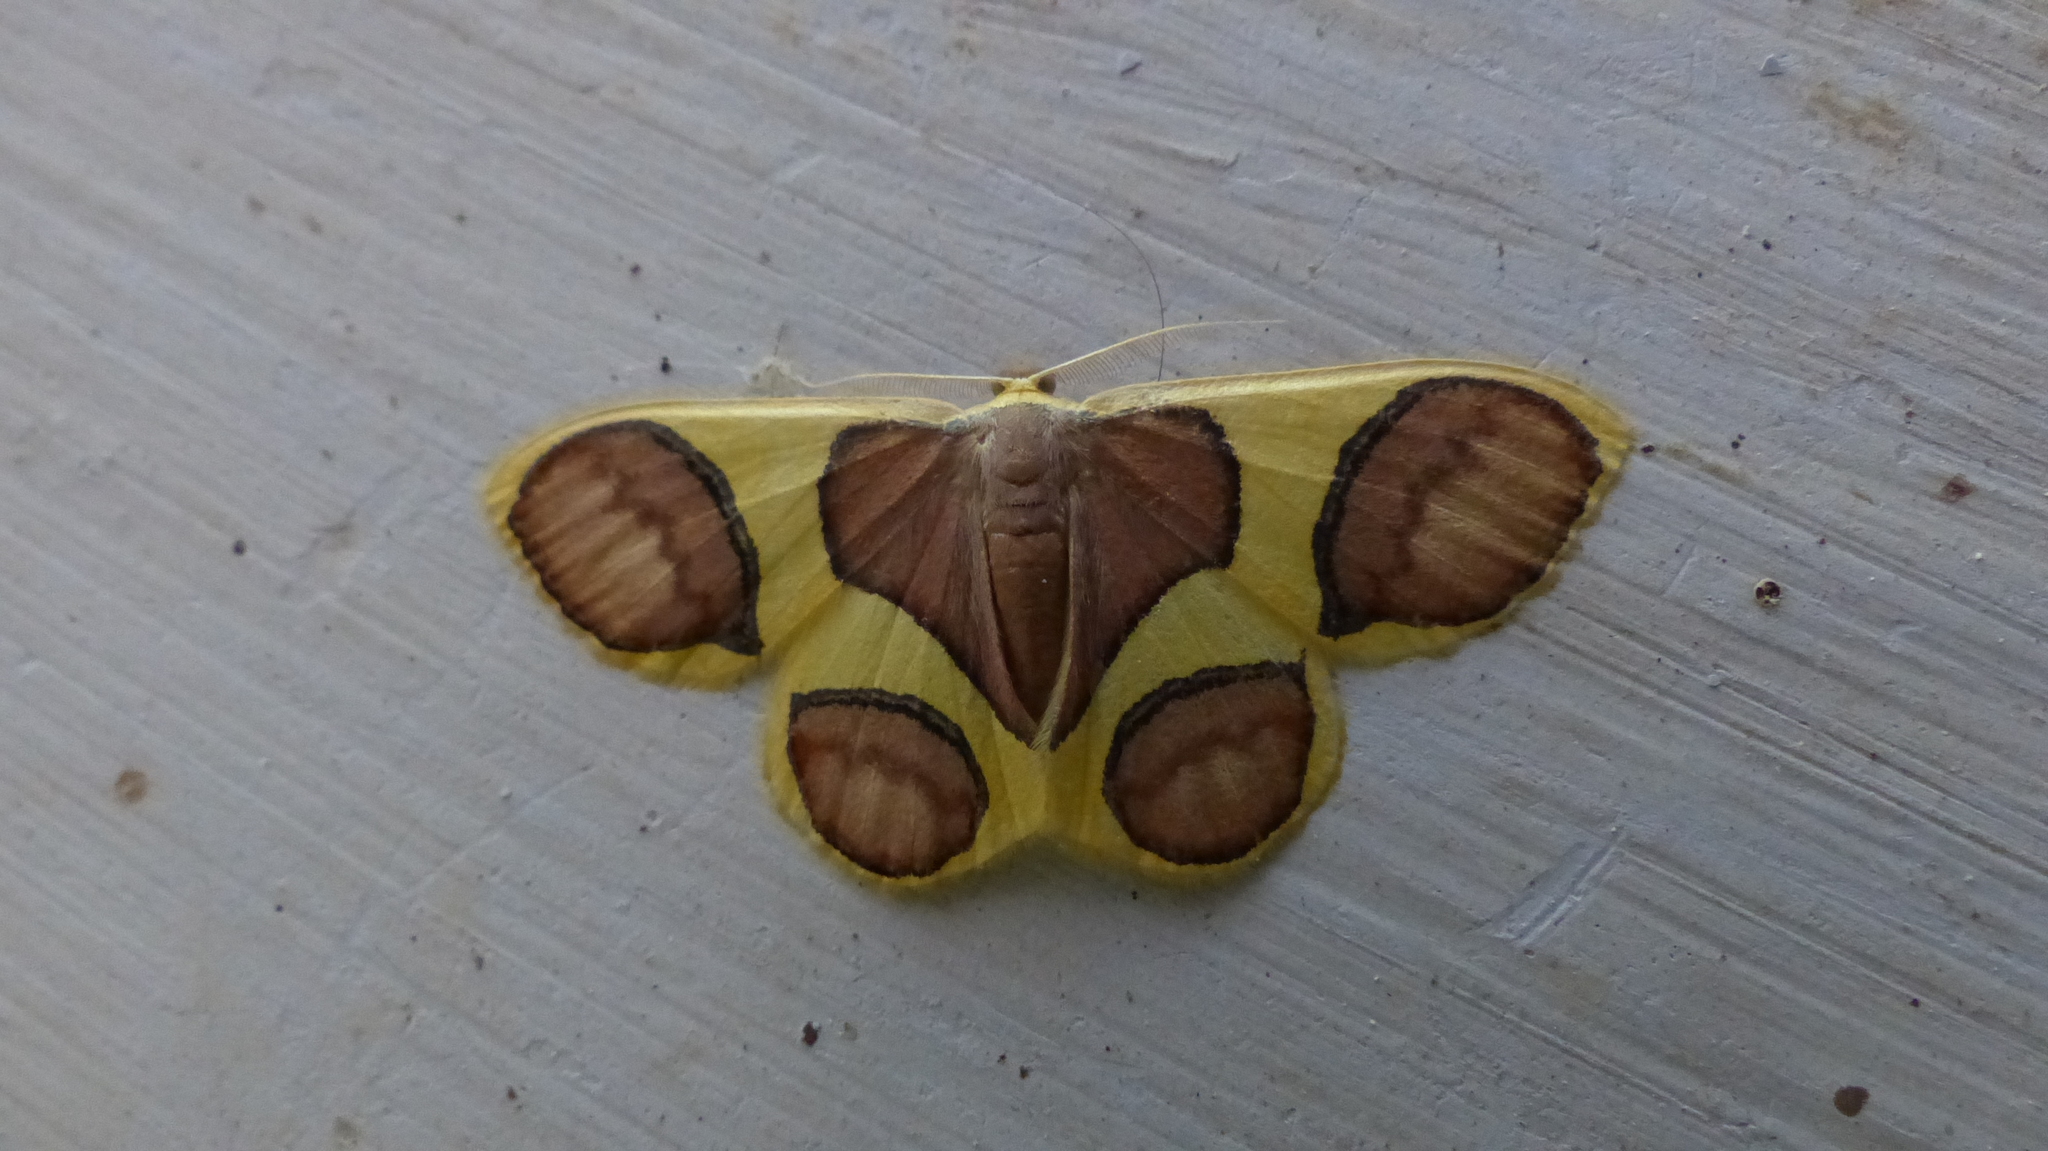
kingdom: Animalia
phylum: Arthropoda
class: Insecta
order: Lepidoptera
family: Geometridae
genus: Plutodes
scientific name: Plutodes pseudocyclaria
